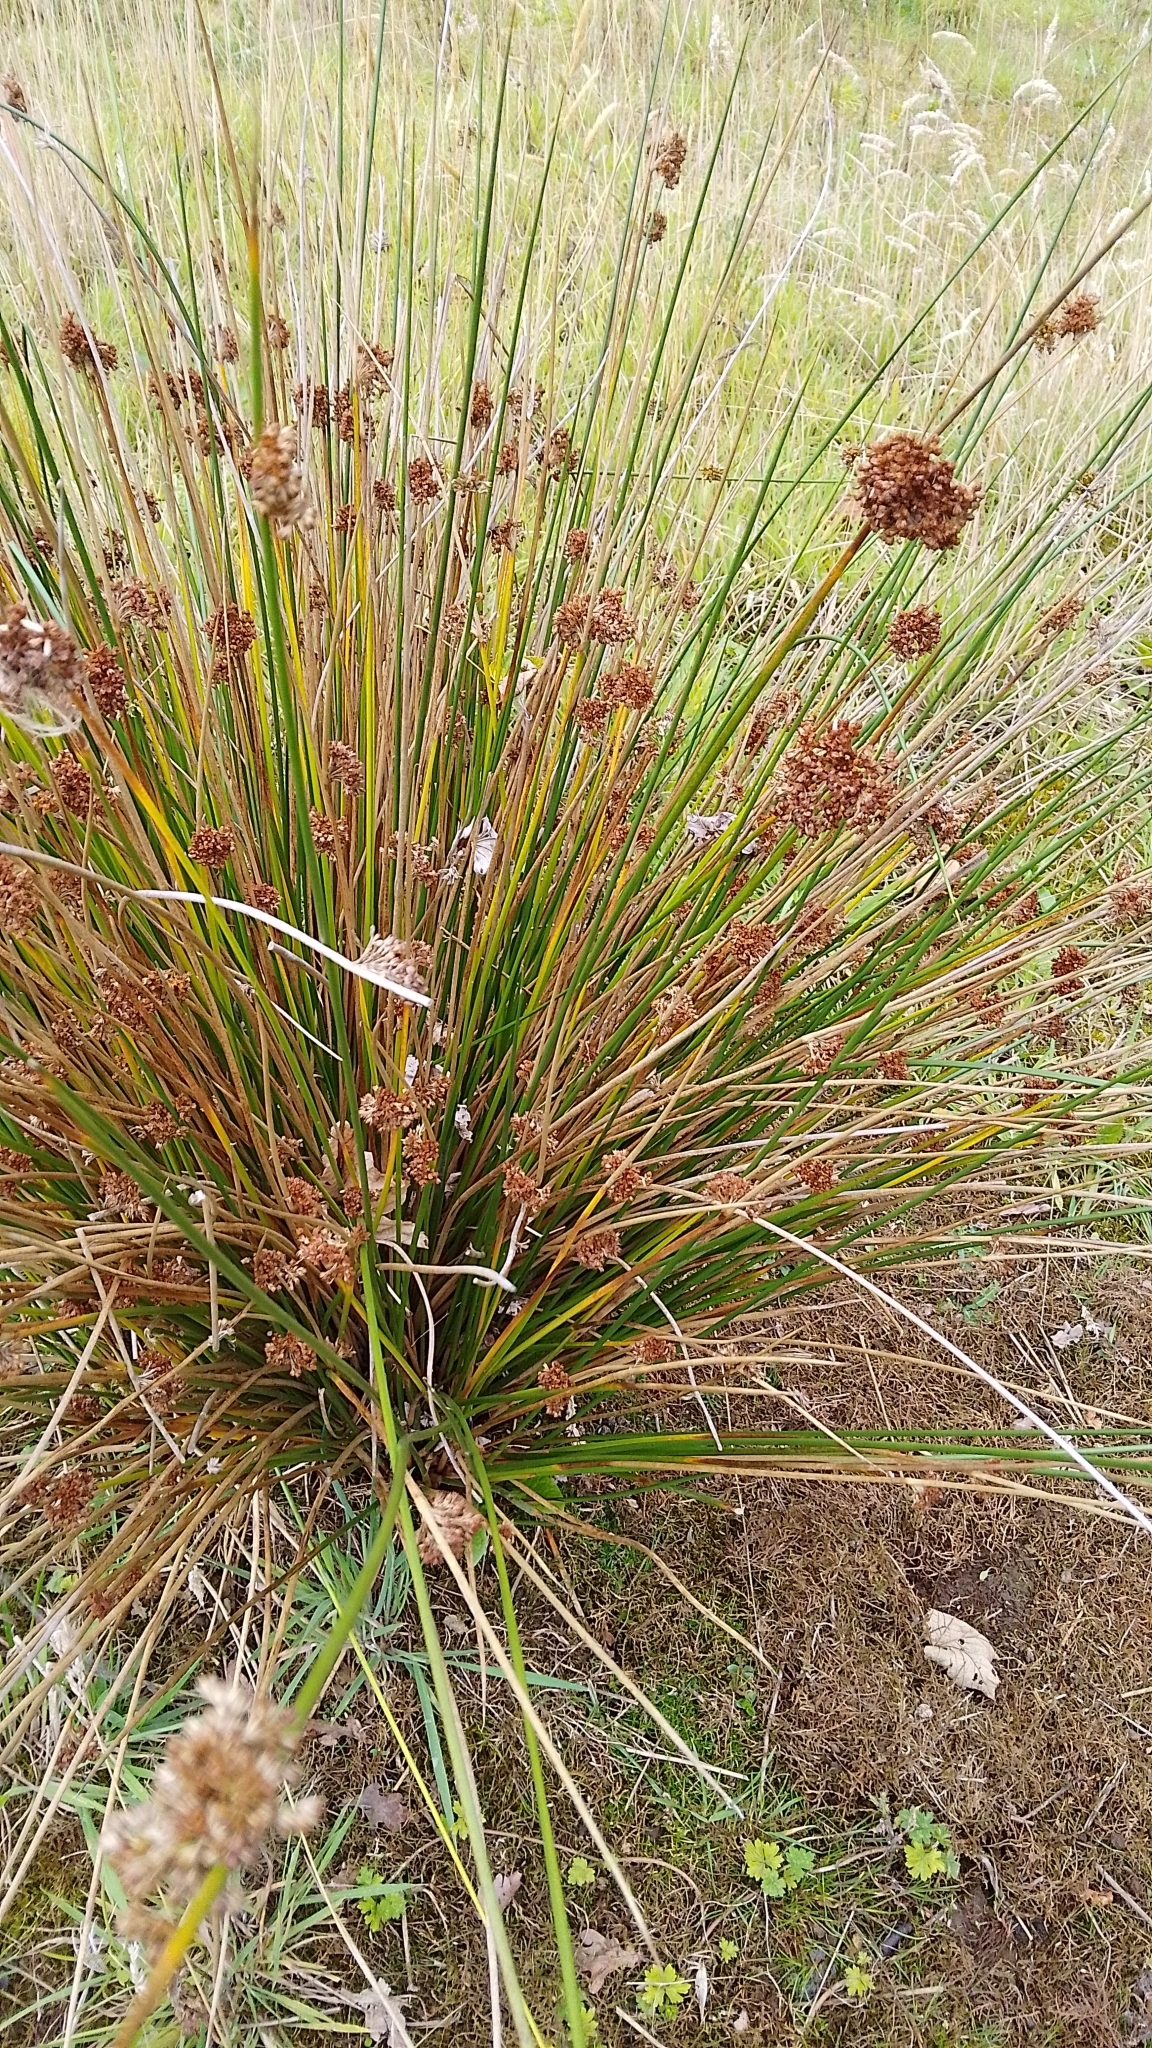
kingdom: Plantae
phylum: Tracheophyta
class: Liliopsida
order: Poales
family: Juncaceae
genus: Juncus
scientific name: Juncus effusus
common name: Soft rush
